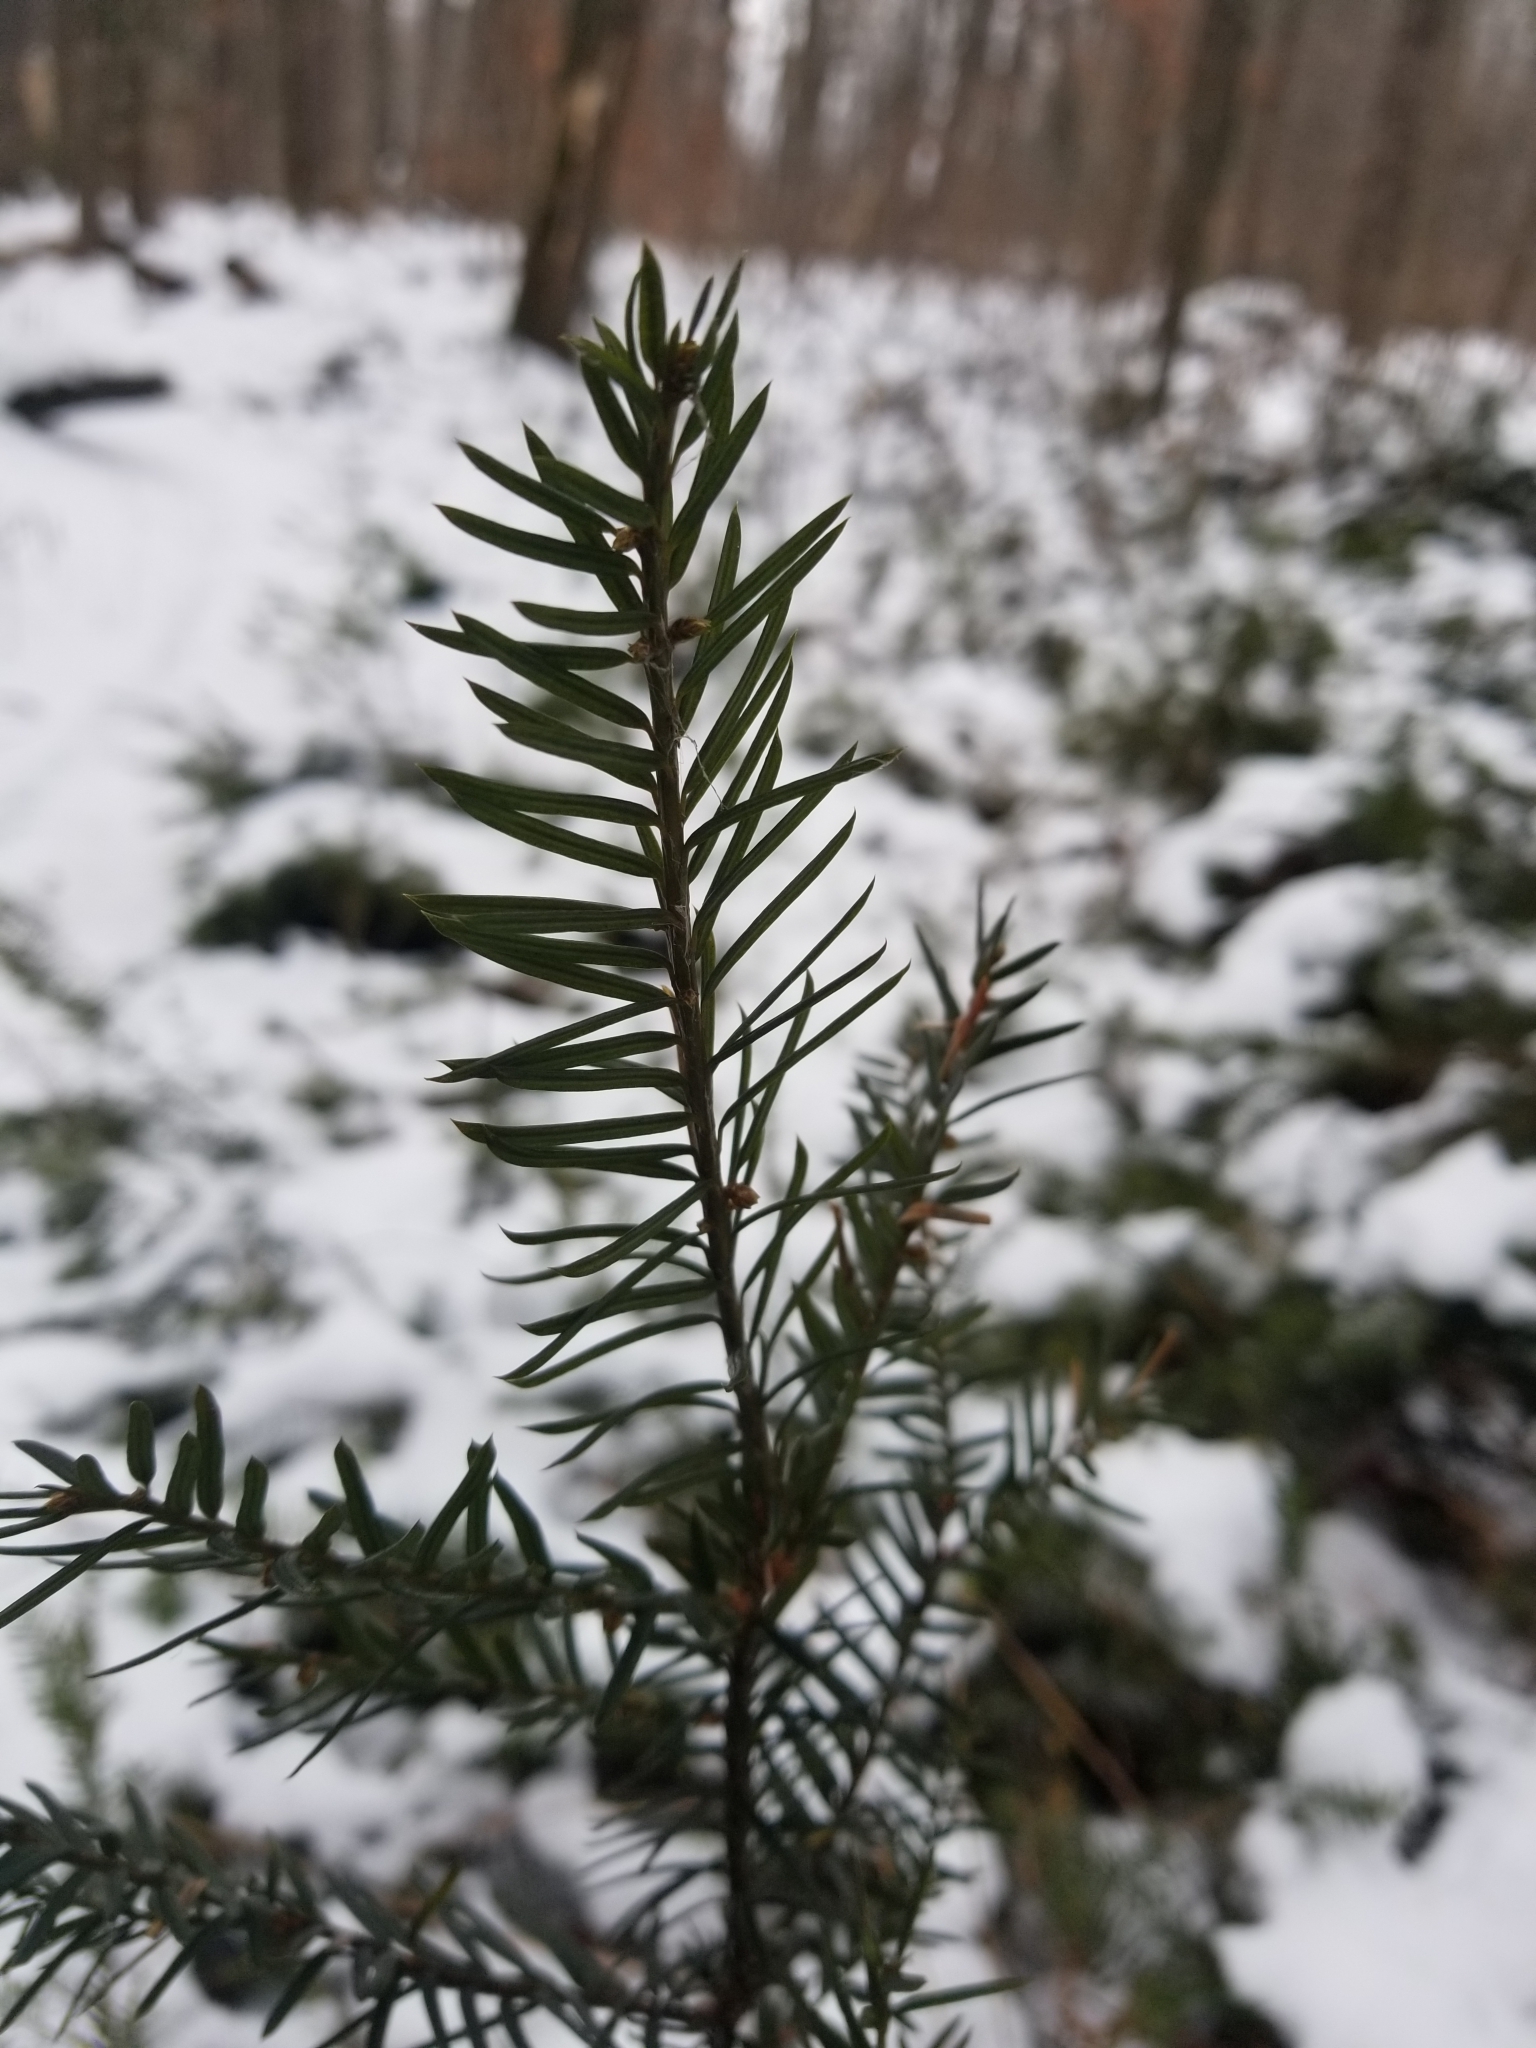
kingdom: Plantae
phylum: Tracheophyta
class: Pinopsida
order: Pinales
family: Taxaceae
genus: Taxus
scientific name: Taxus canadensis
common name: American yew
